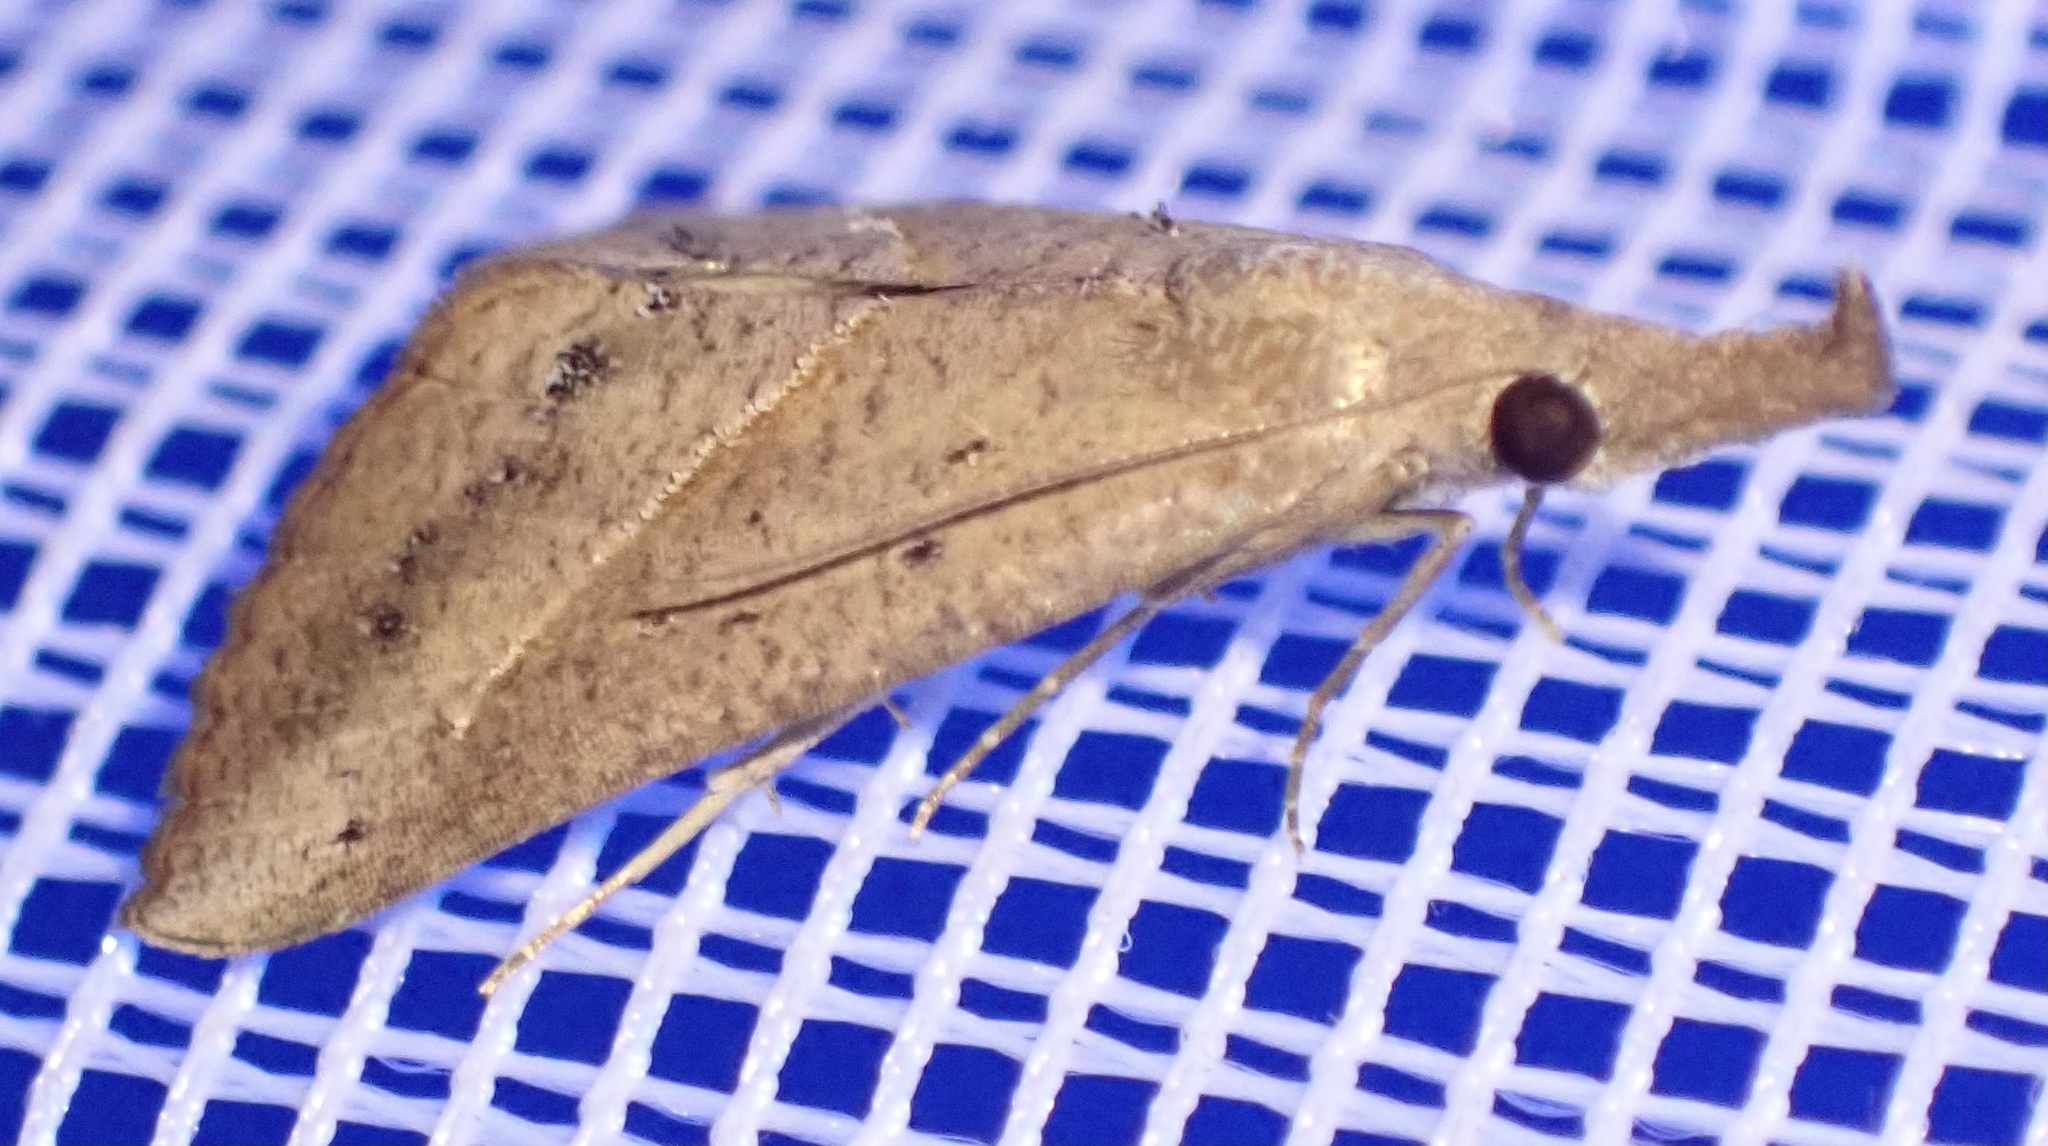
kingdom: Animalia
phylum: Arthropoda
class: Insecta
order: Lepidoptera
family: Erebidae
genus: Hypena
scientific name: Hypena lividalis
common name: Chevron snout
